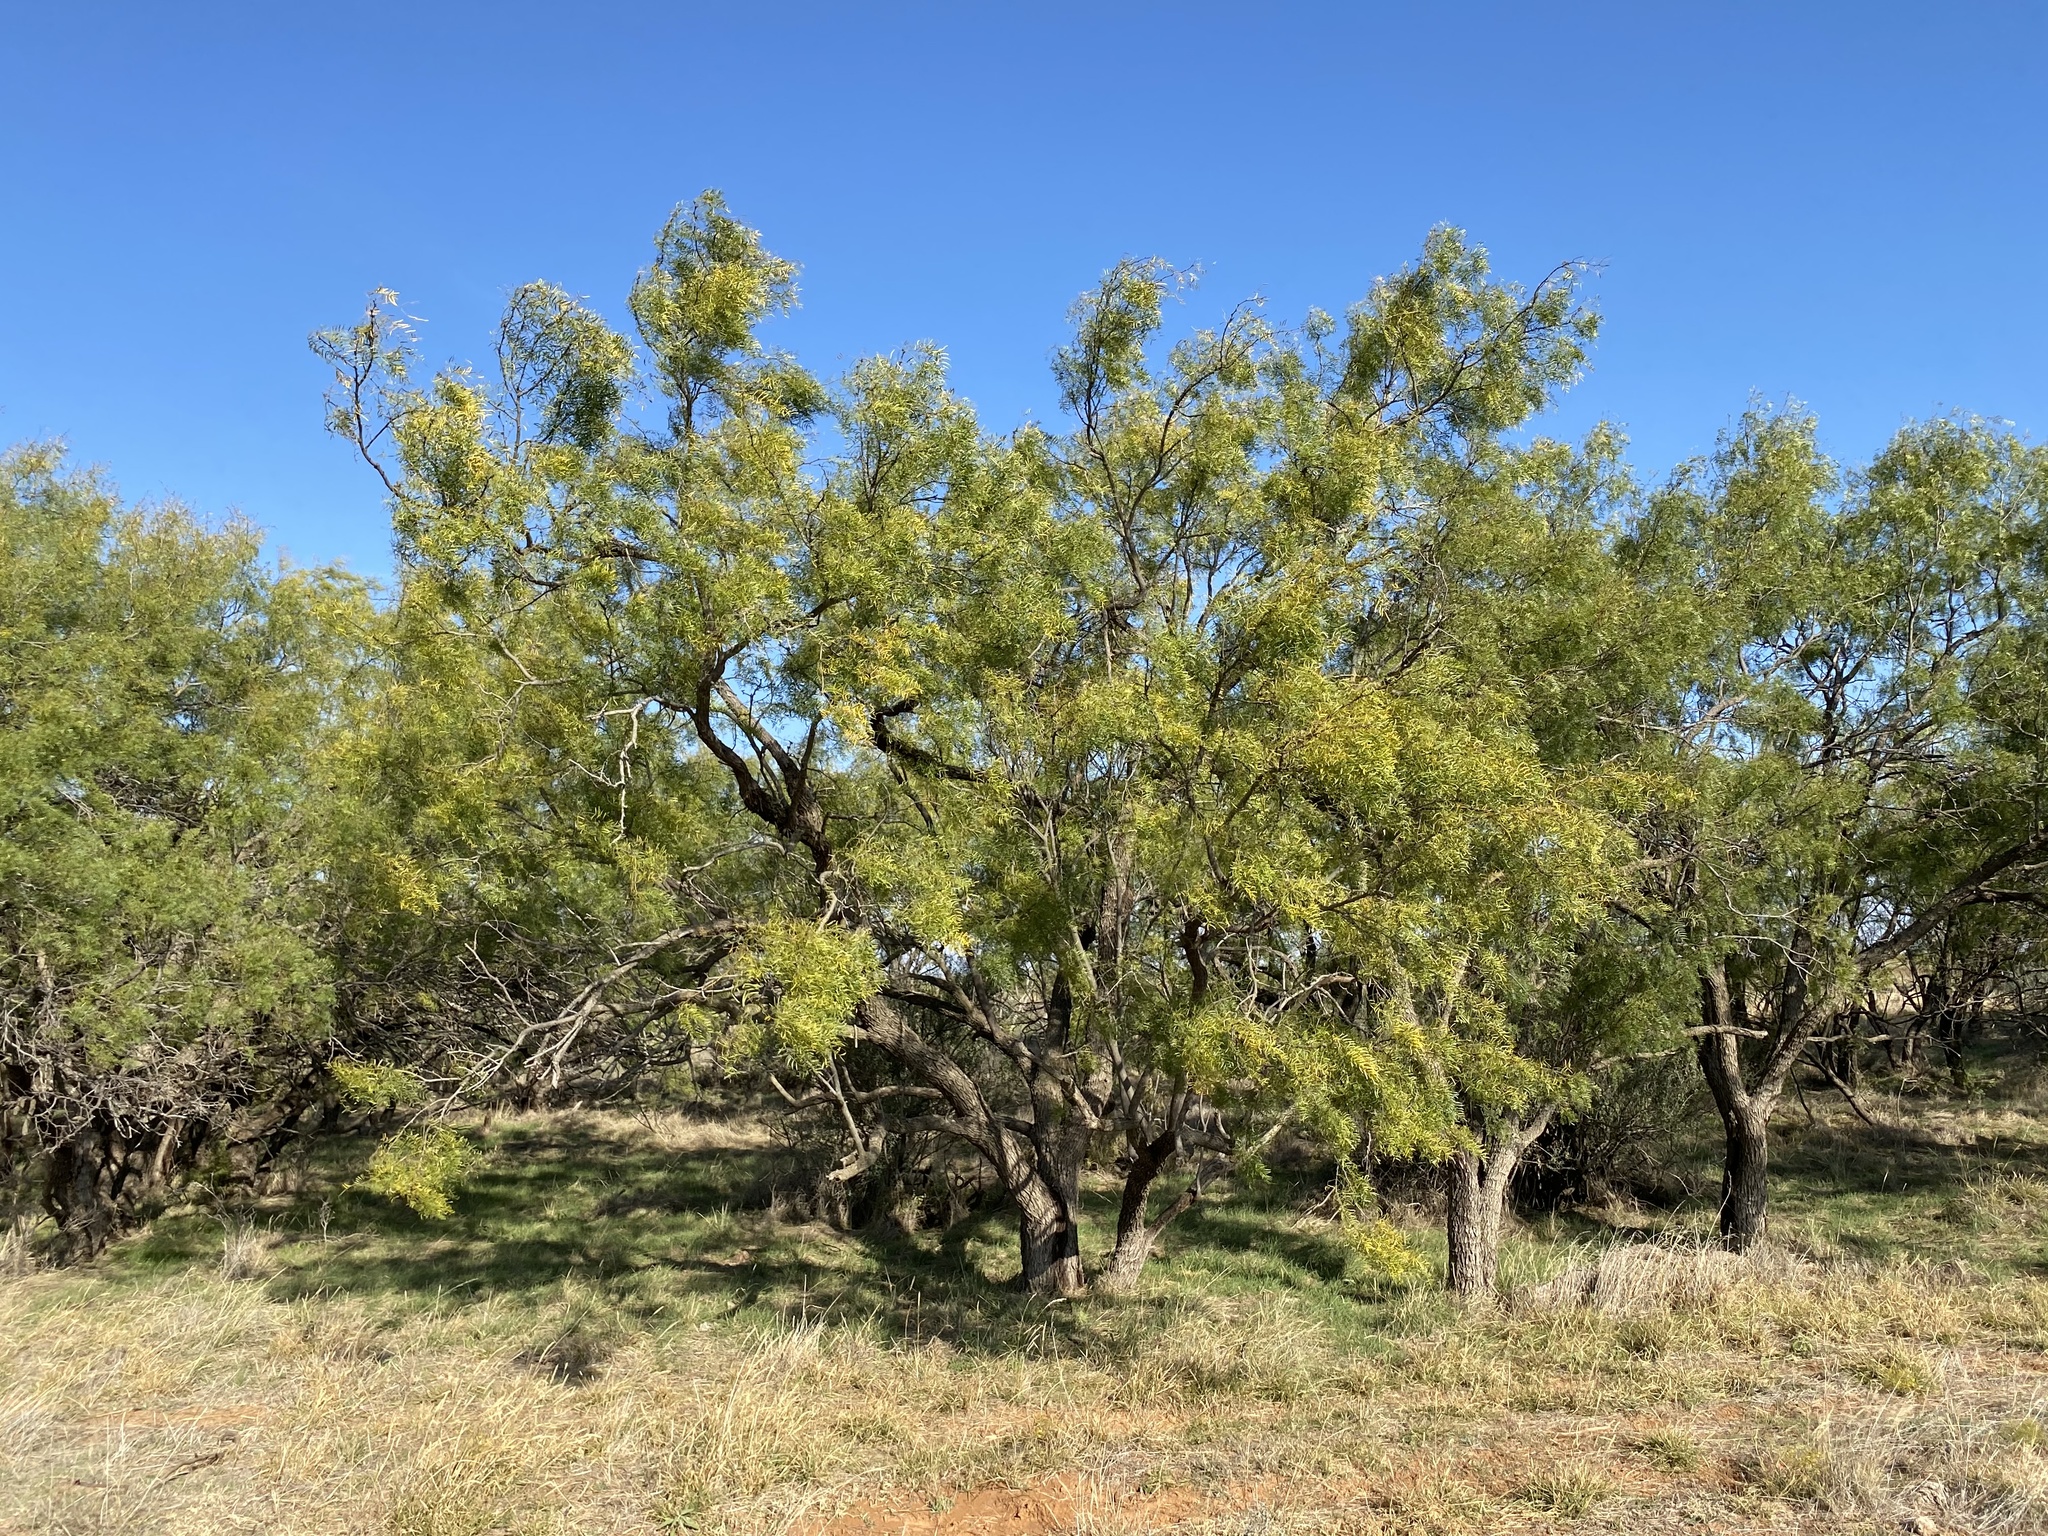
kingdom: Plantae
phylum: Tracheophyta
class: Magnoliopsida
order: Fabales
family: Fabaceae
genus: Prosopis
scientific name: Prosopis glandulosa
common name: Honey mesquite
